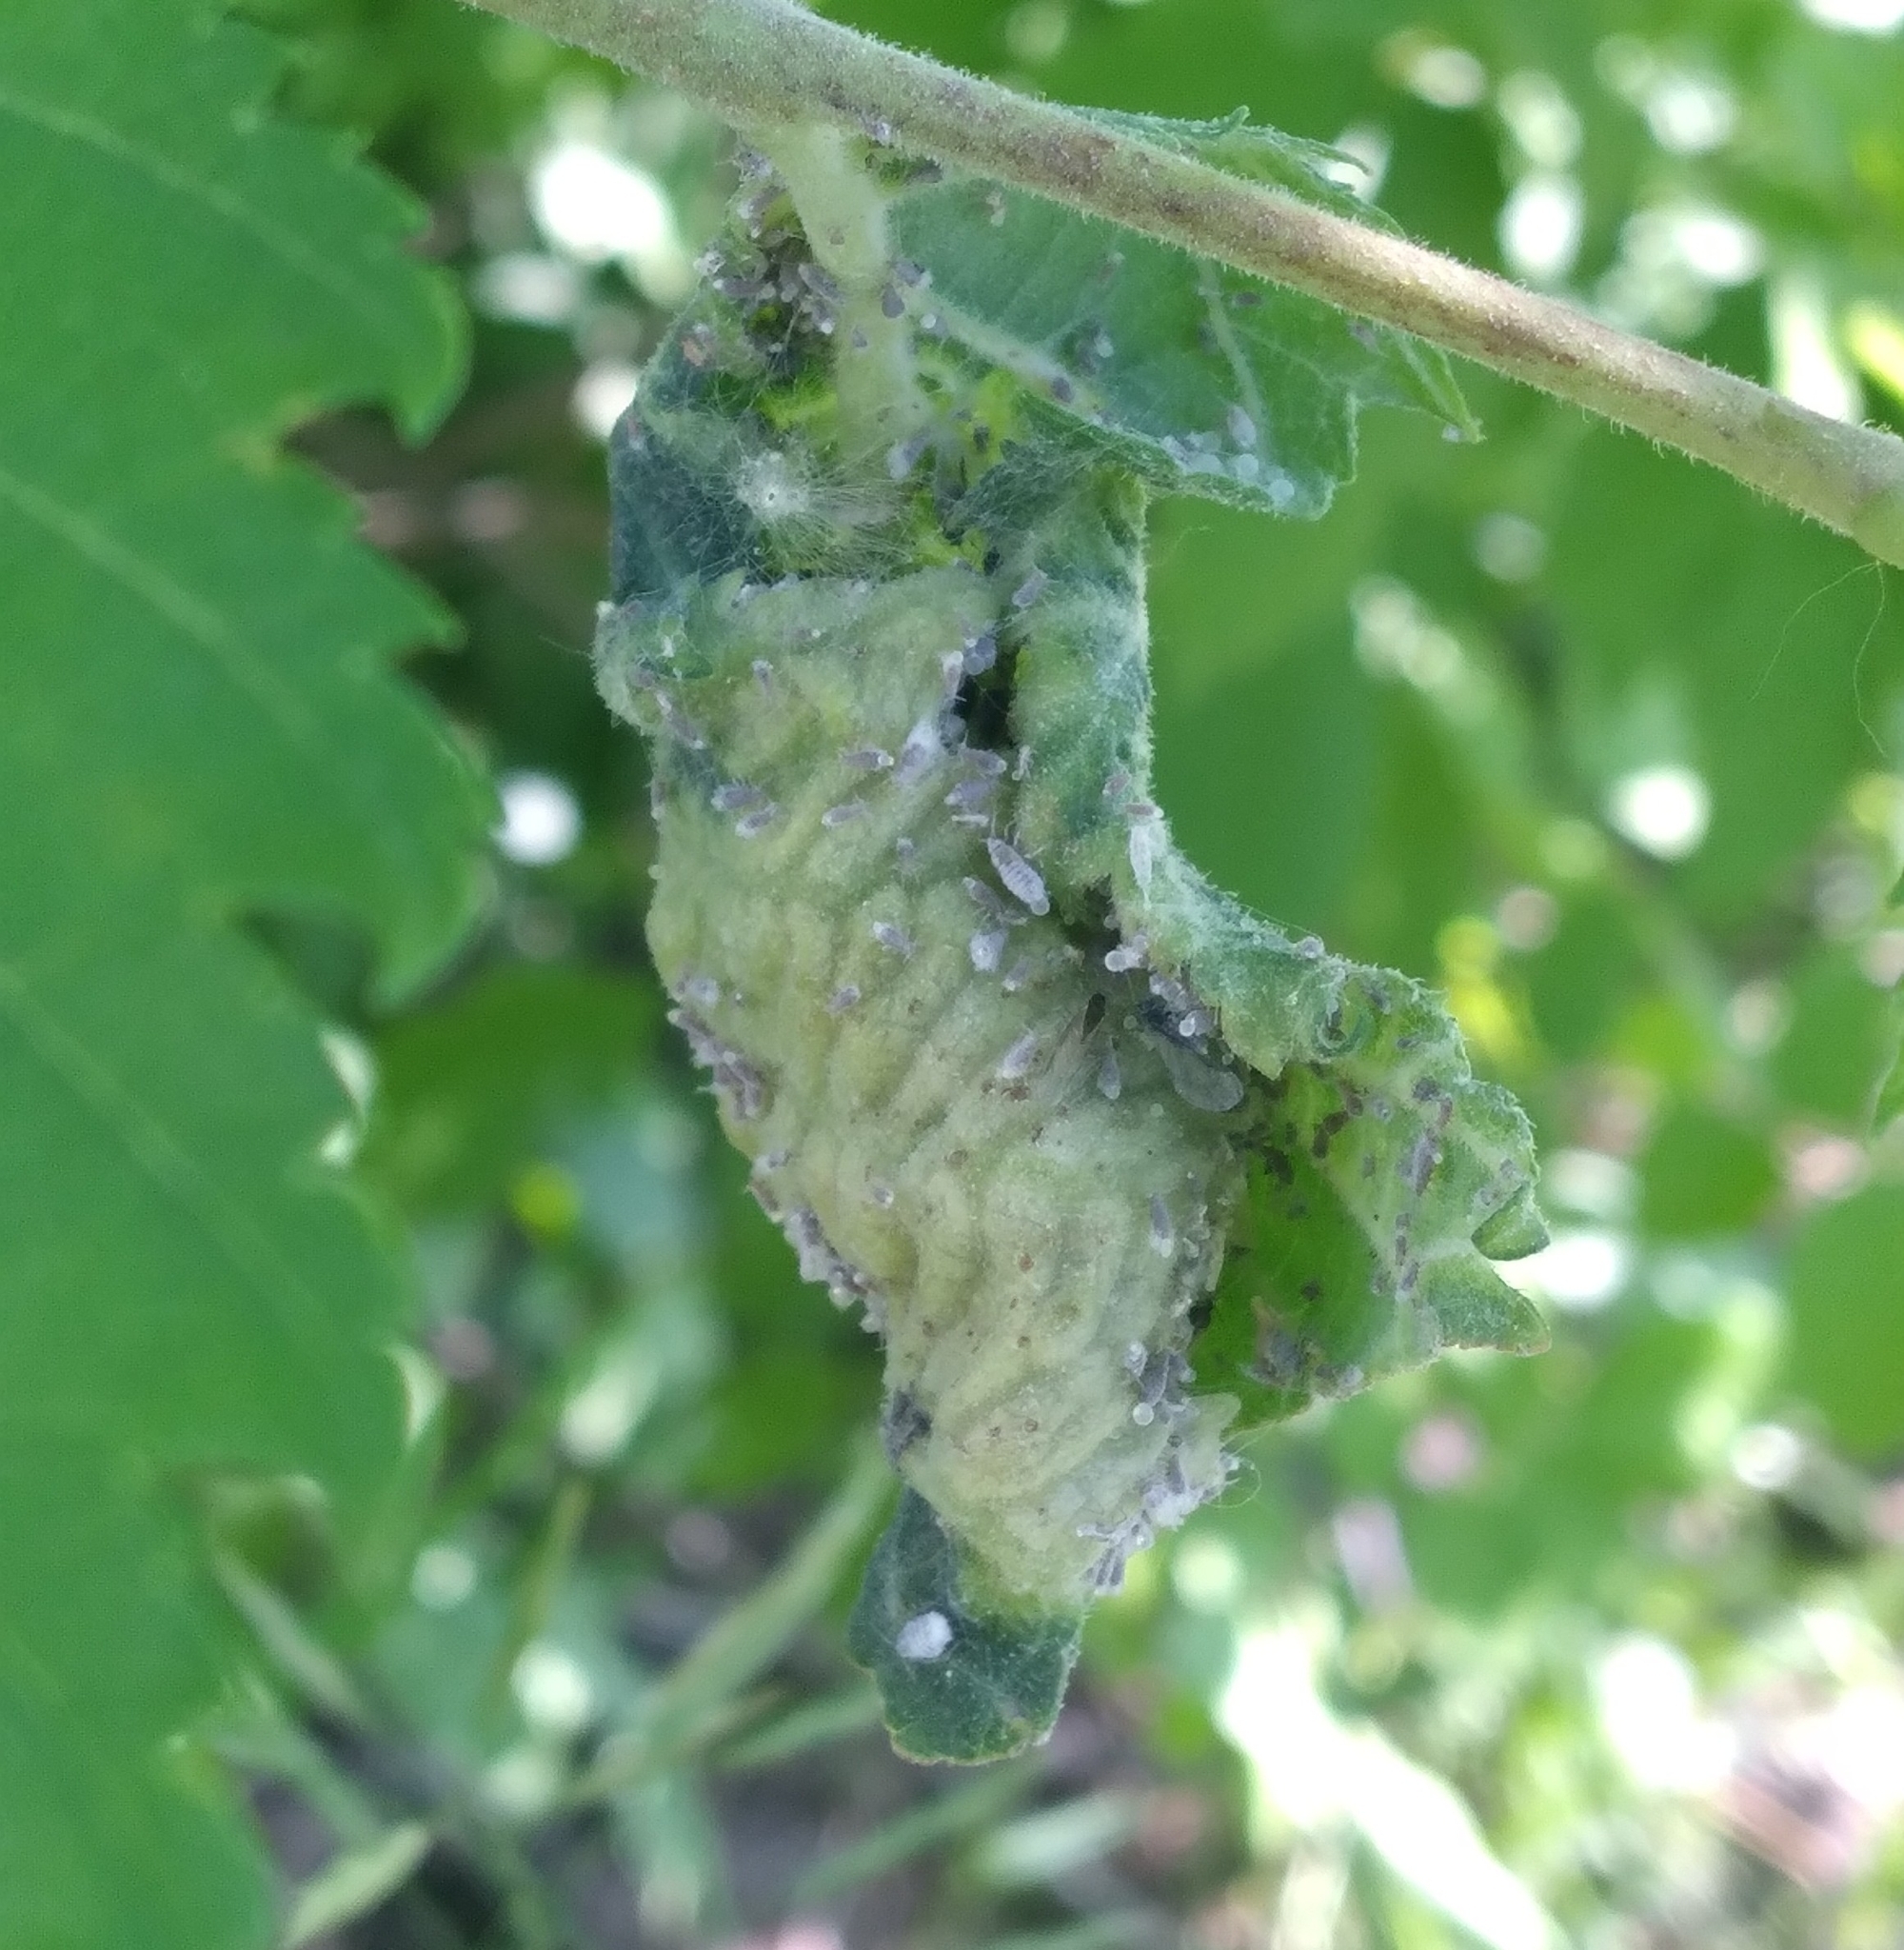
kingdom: Animalia
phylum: Arthropoda
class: Insecta
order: Hemiptera
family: Aphididae
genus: Eriosoma
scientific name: Eriosoma americanum
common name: Woolly elm aphid
